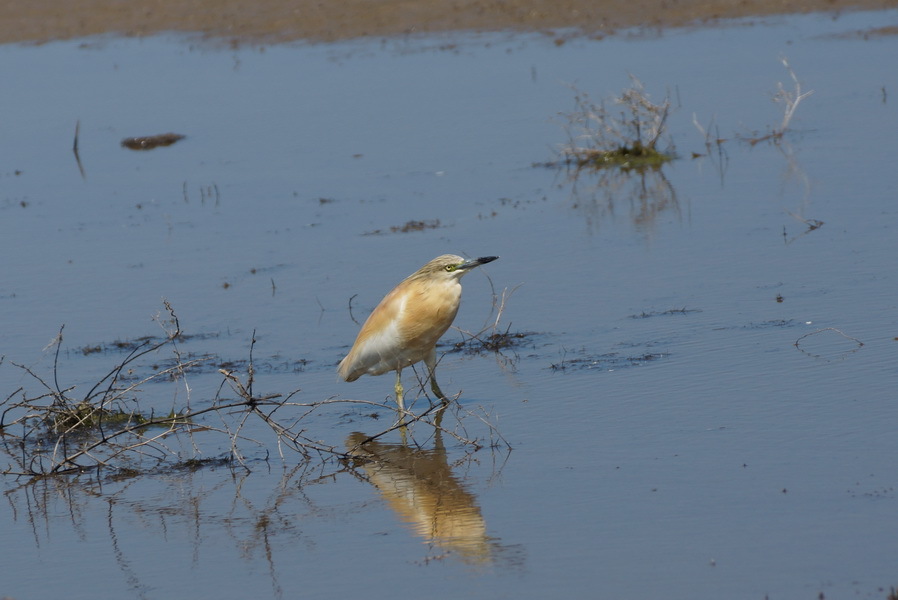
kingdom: Animalia
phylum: Chordata
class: Aves
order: Pelecaniformes
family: Ardeidae
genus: Ardeola
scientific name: Ardeola ralloides
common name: Squacco heron
